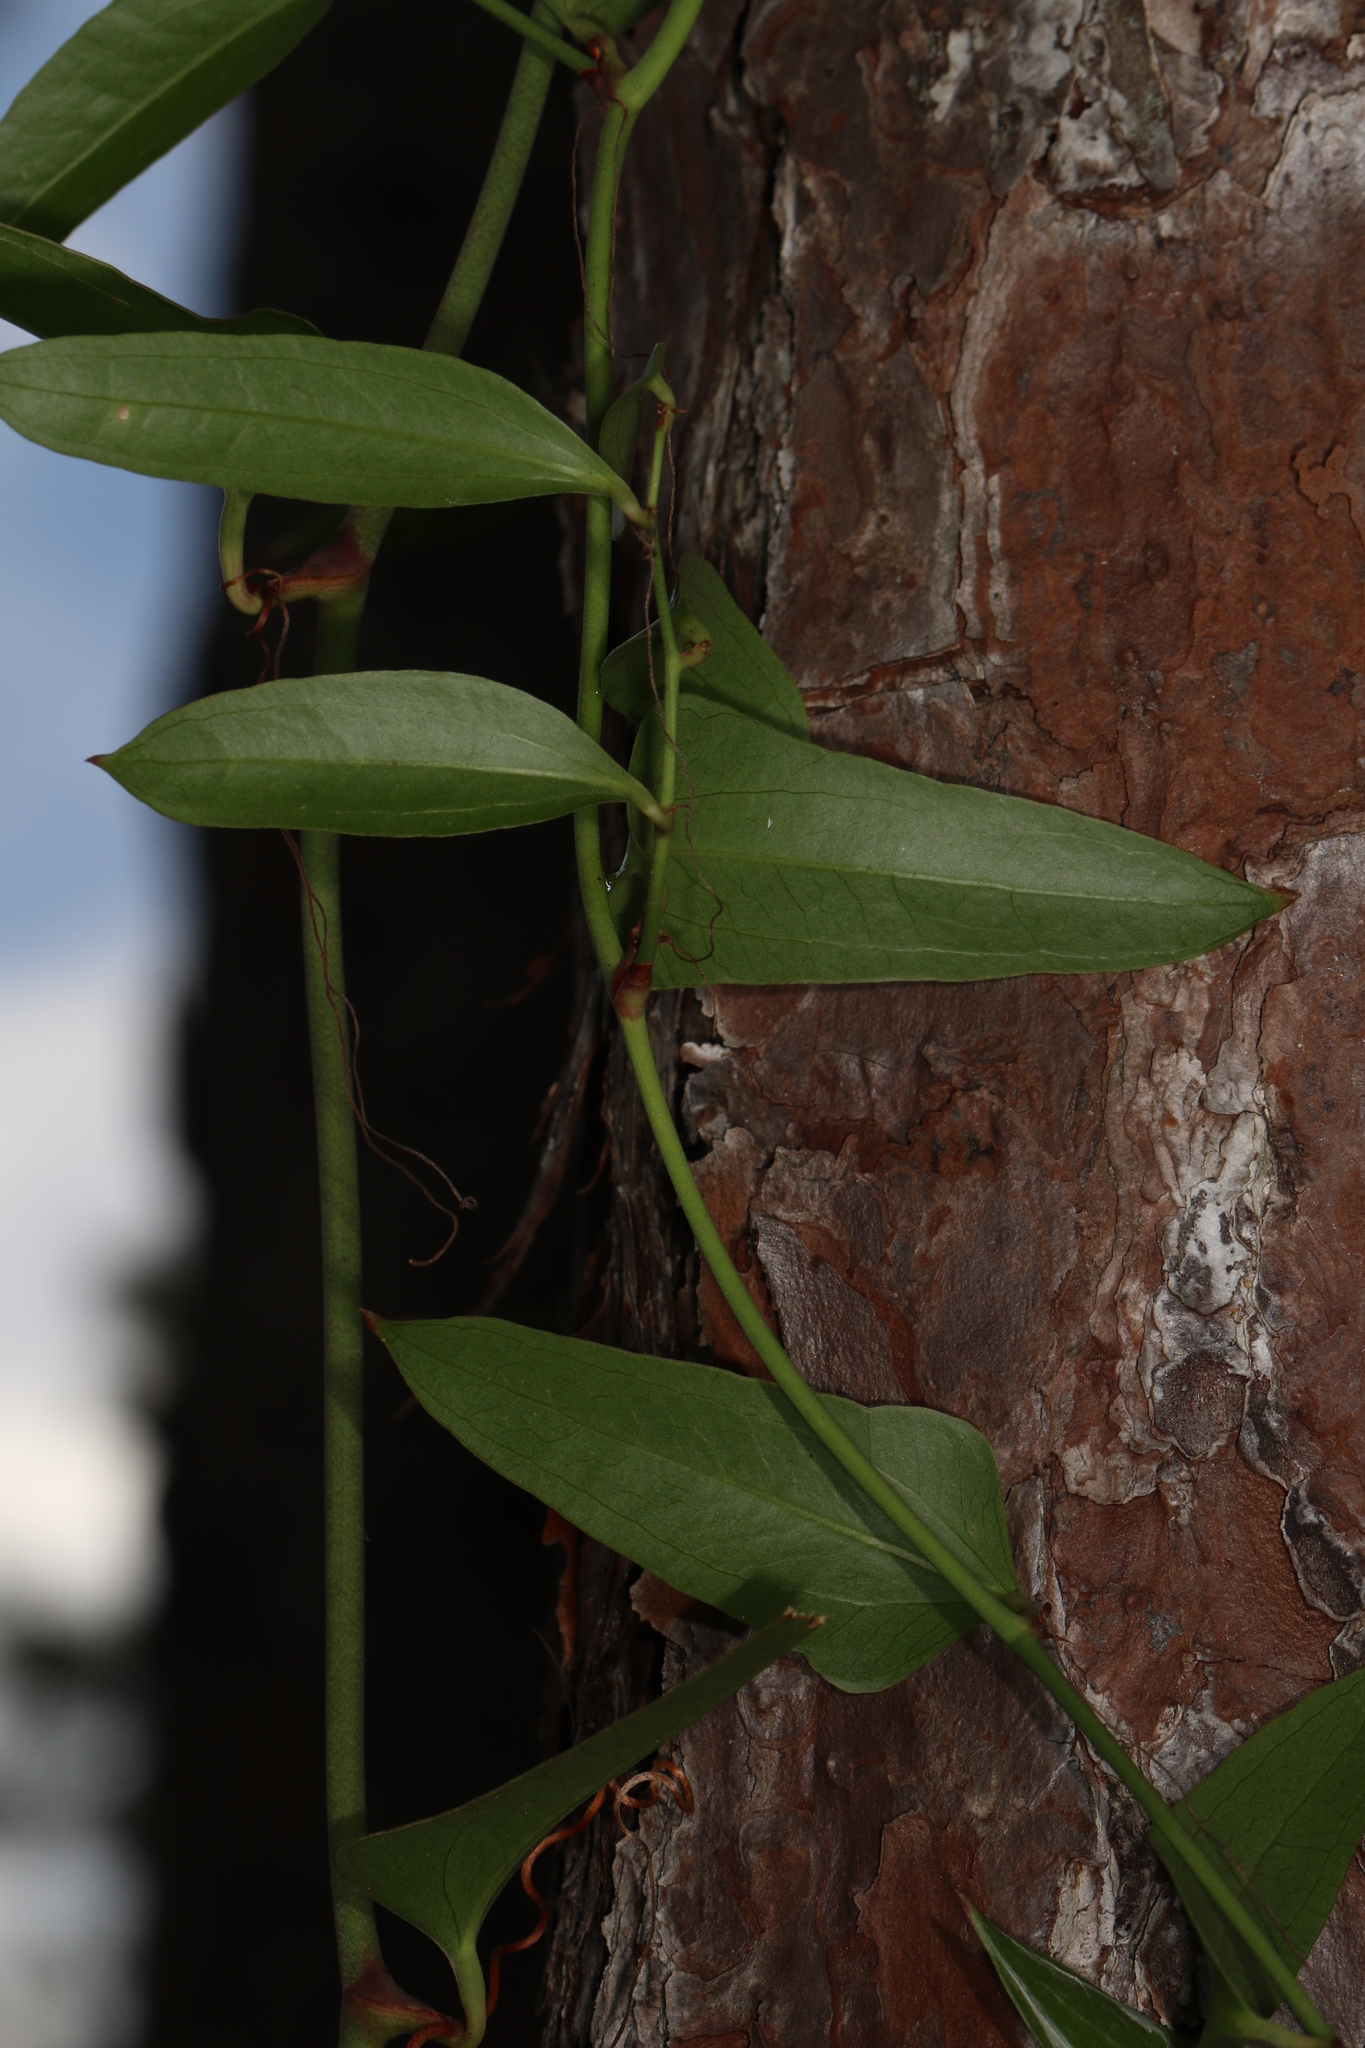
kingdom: Plantae
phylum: Tracheophyta
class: Liliopsida
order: Liliales
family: Smilacaceae
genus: Smilax
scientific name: Smilax auriculata
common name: Wild bamboo
